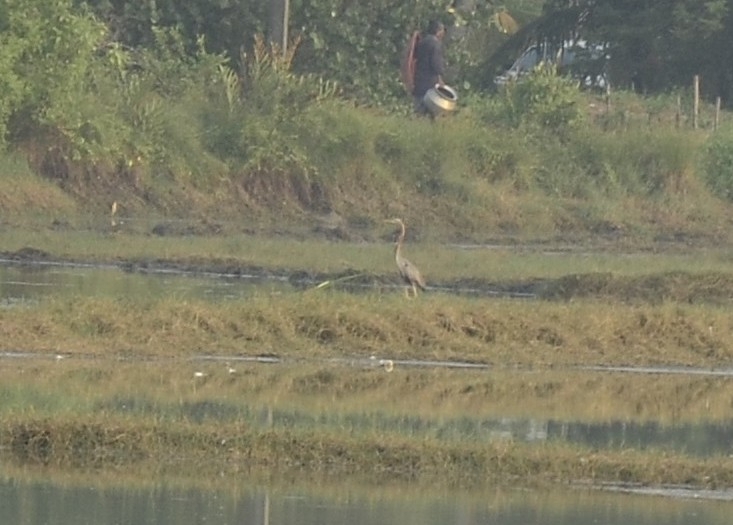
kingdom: Animalia
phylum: Chordata
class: Aves
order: Pelecaniformes
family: Ardeidae
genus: Ardea
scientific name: Ardea purpurea
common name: Purple heron
